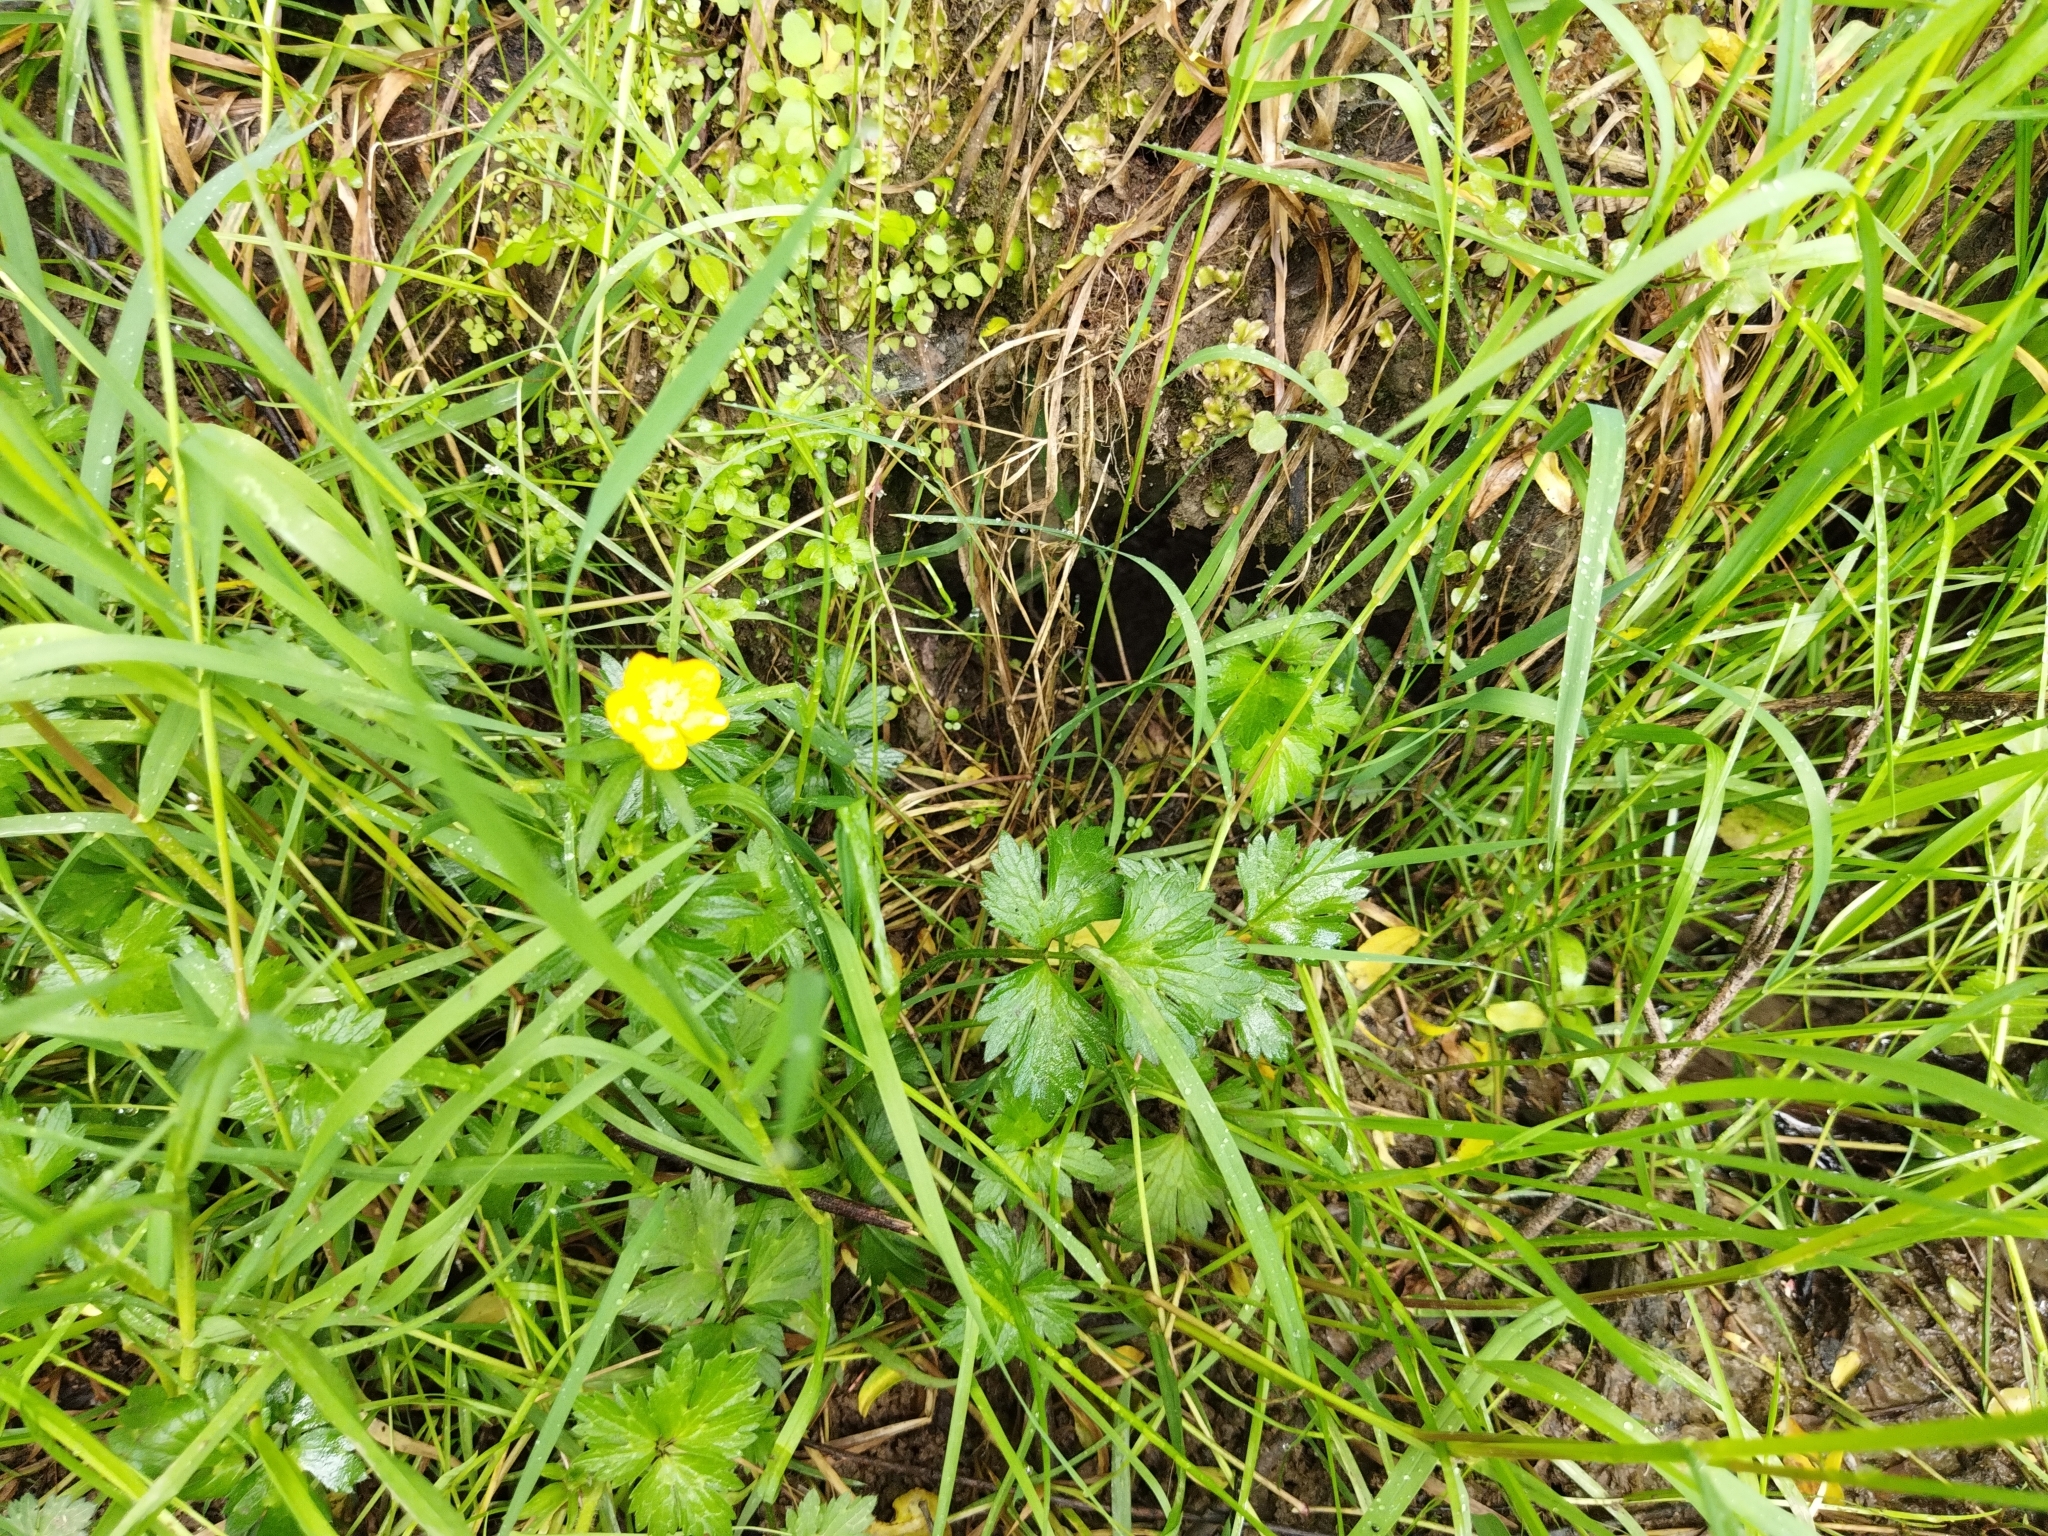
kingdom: Plantae
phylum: Tracheophyta
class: Magnoliopsida
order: Ranunculales
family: Ranunculaceae
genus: Ranunculus
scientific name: Ranunculus repens
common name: Creeping buttercup
